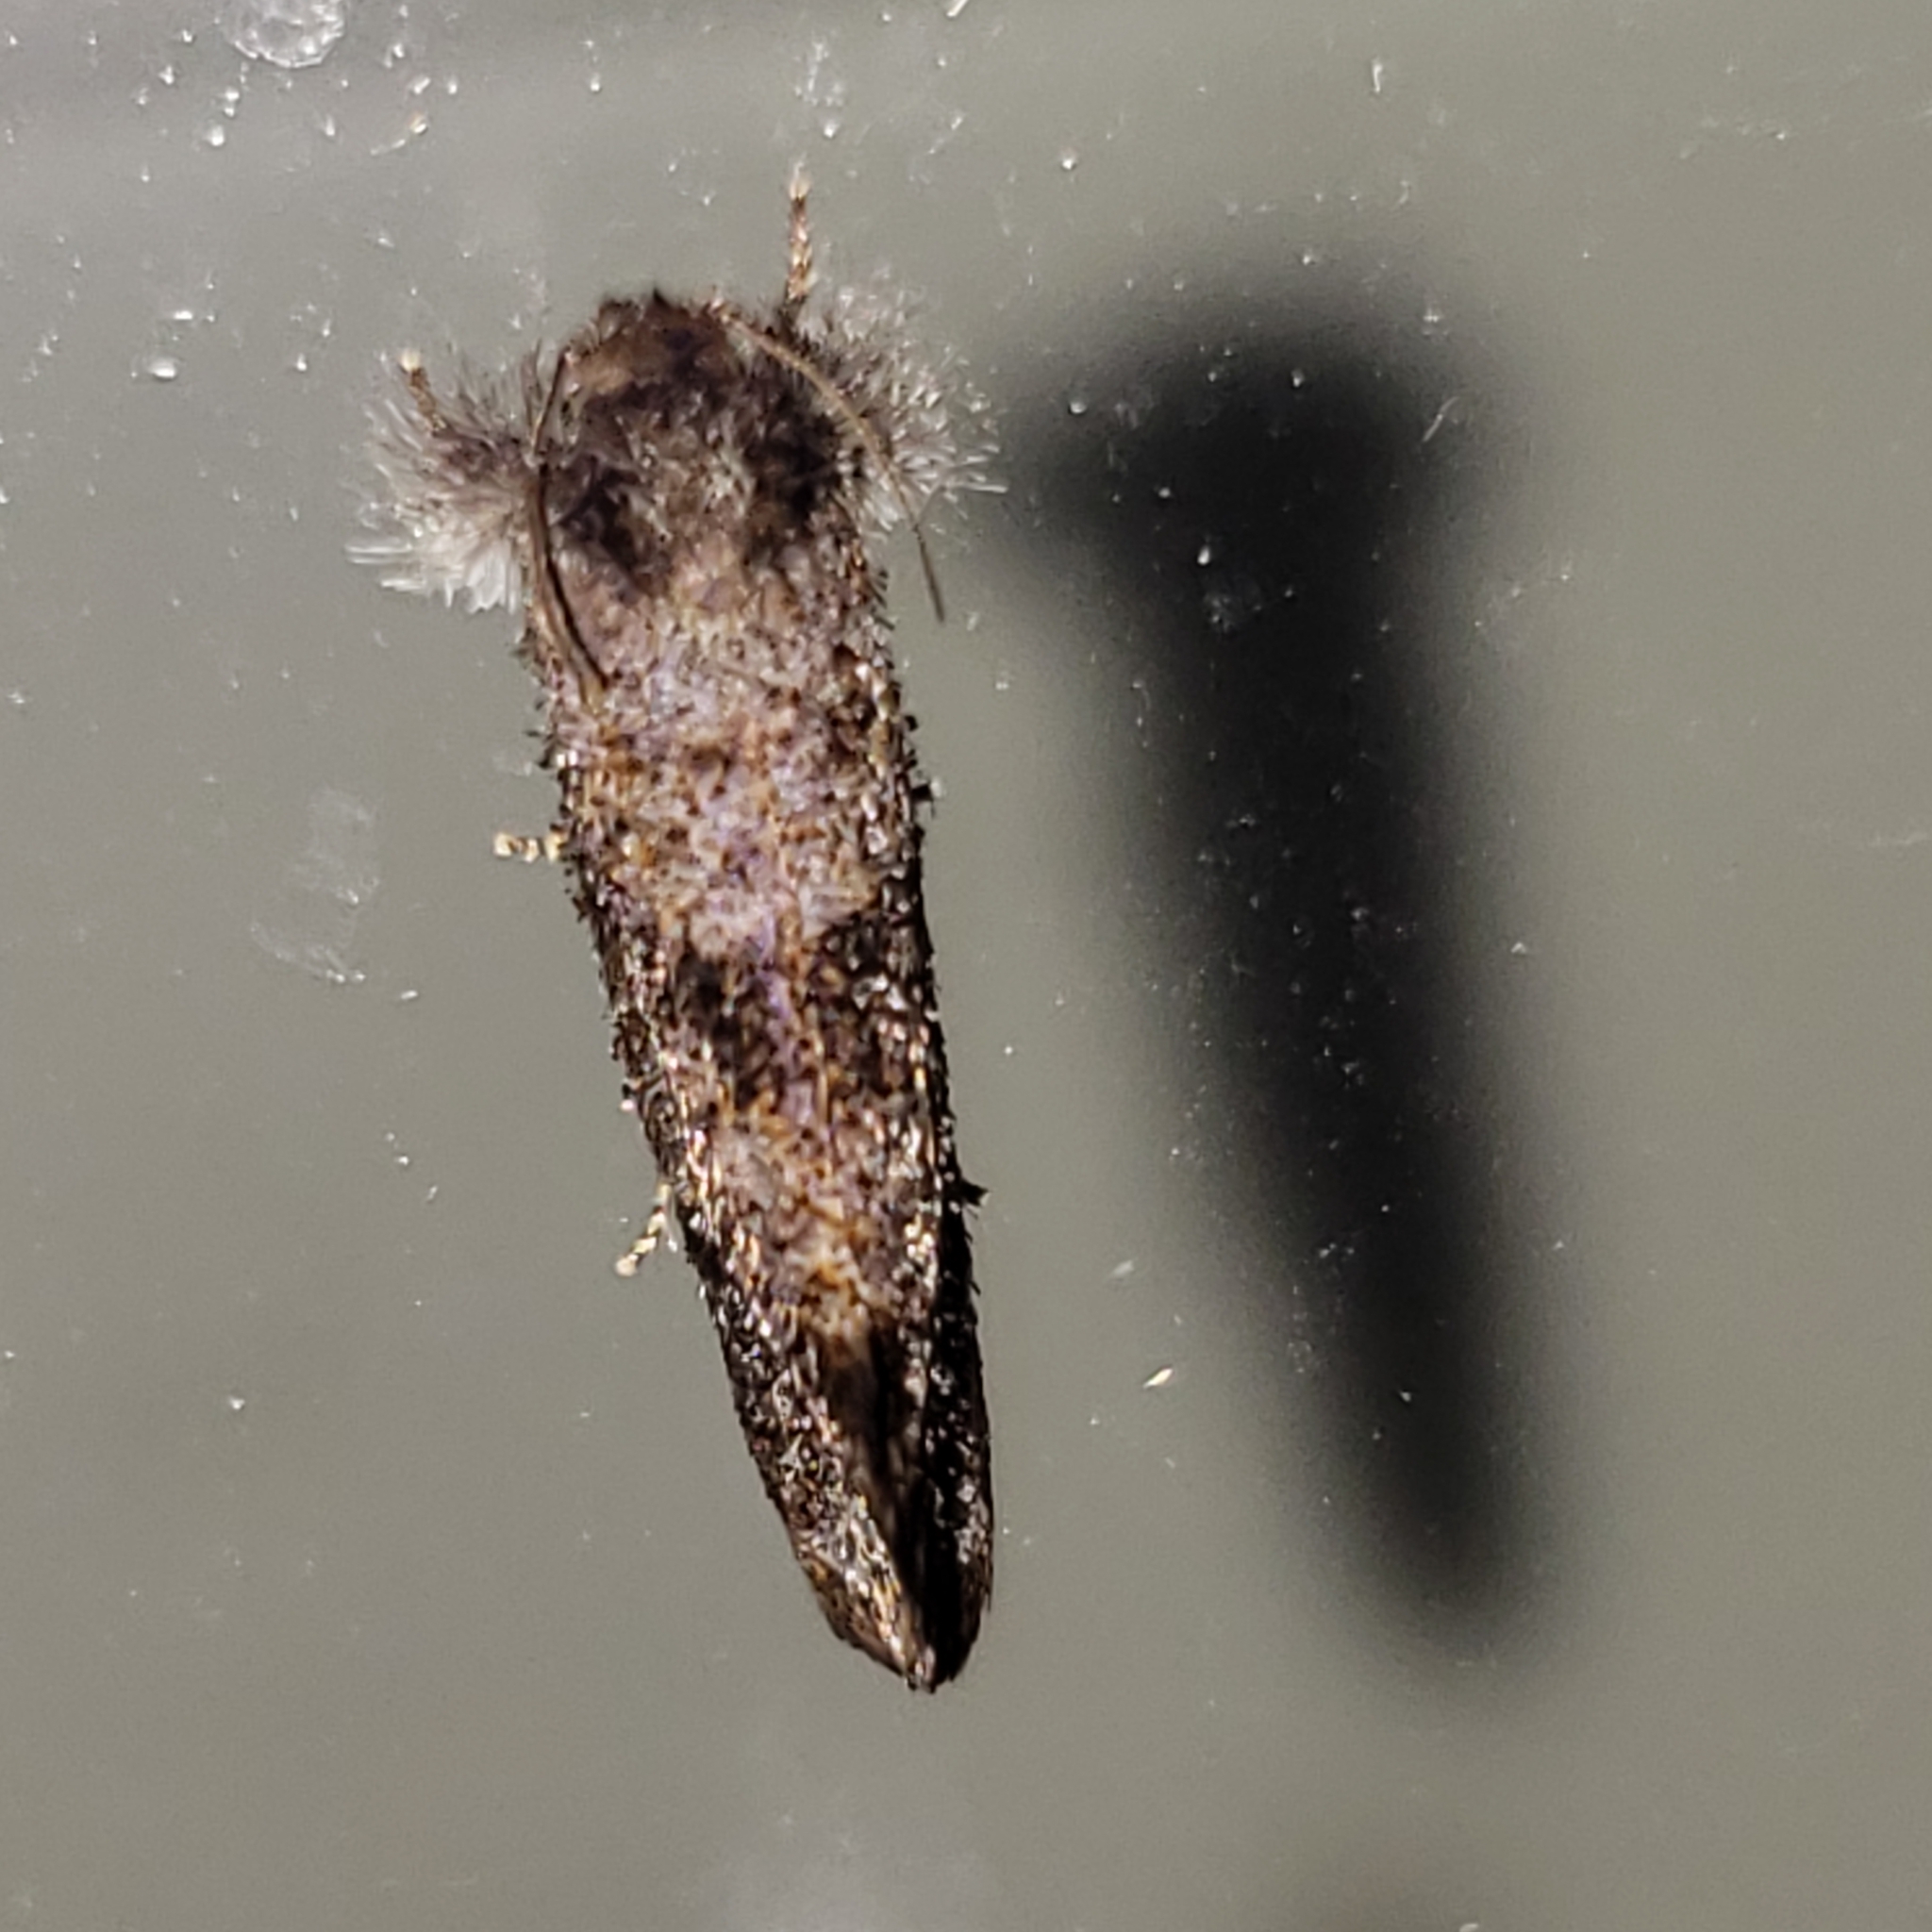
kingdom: Animalia
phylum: Arthropoda
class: Insecta
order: Lepidoptera
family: Tineidae
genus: Acrolophus
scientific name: Acrolophus panamae
